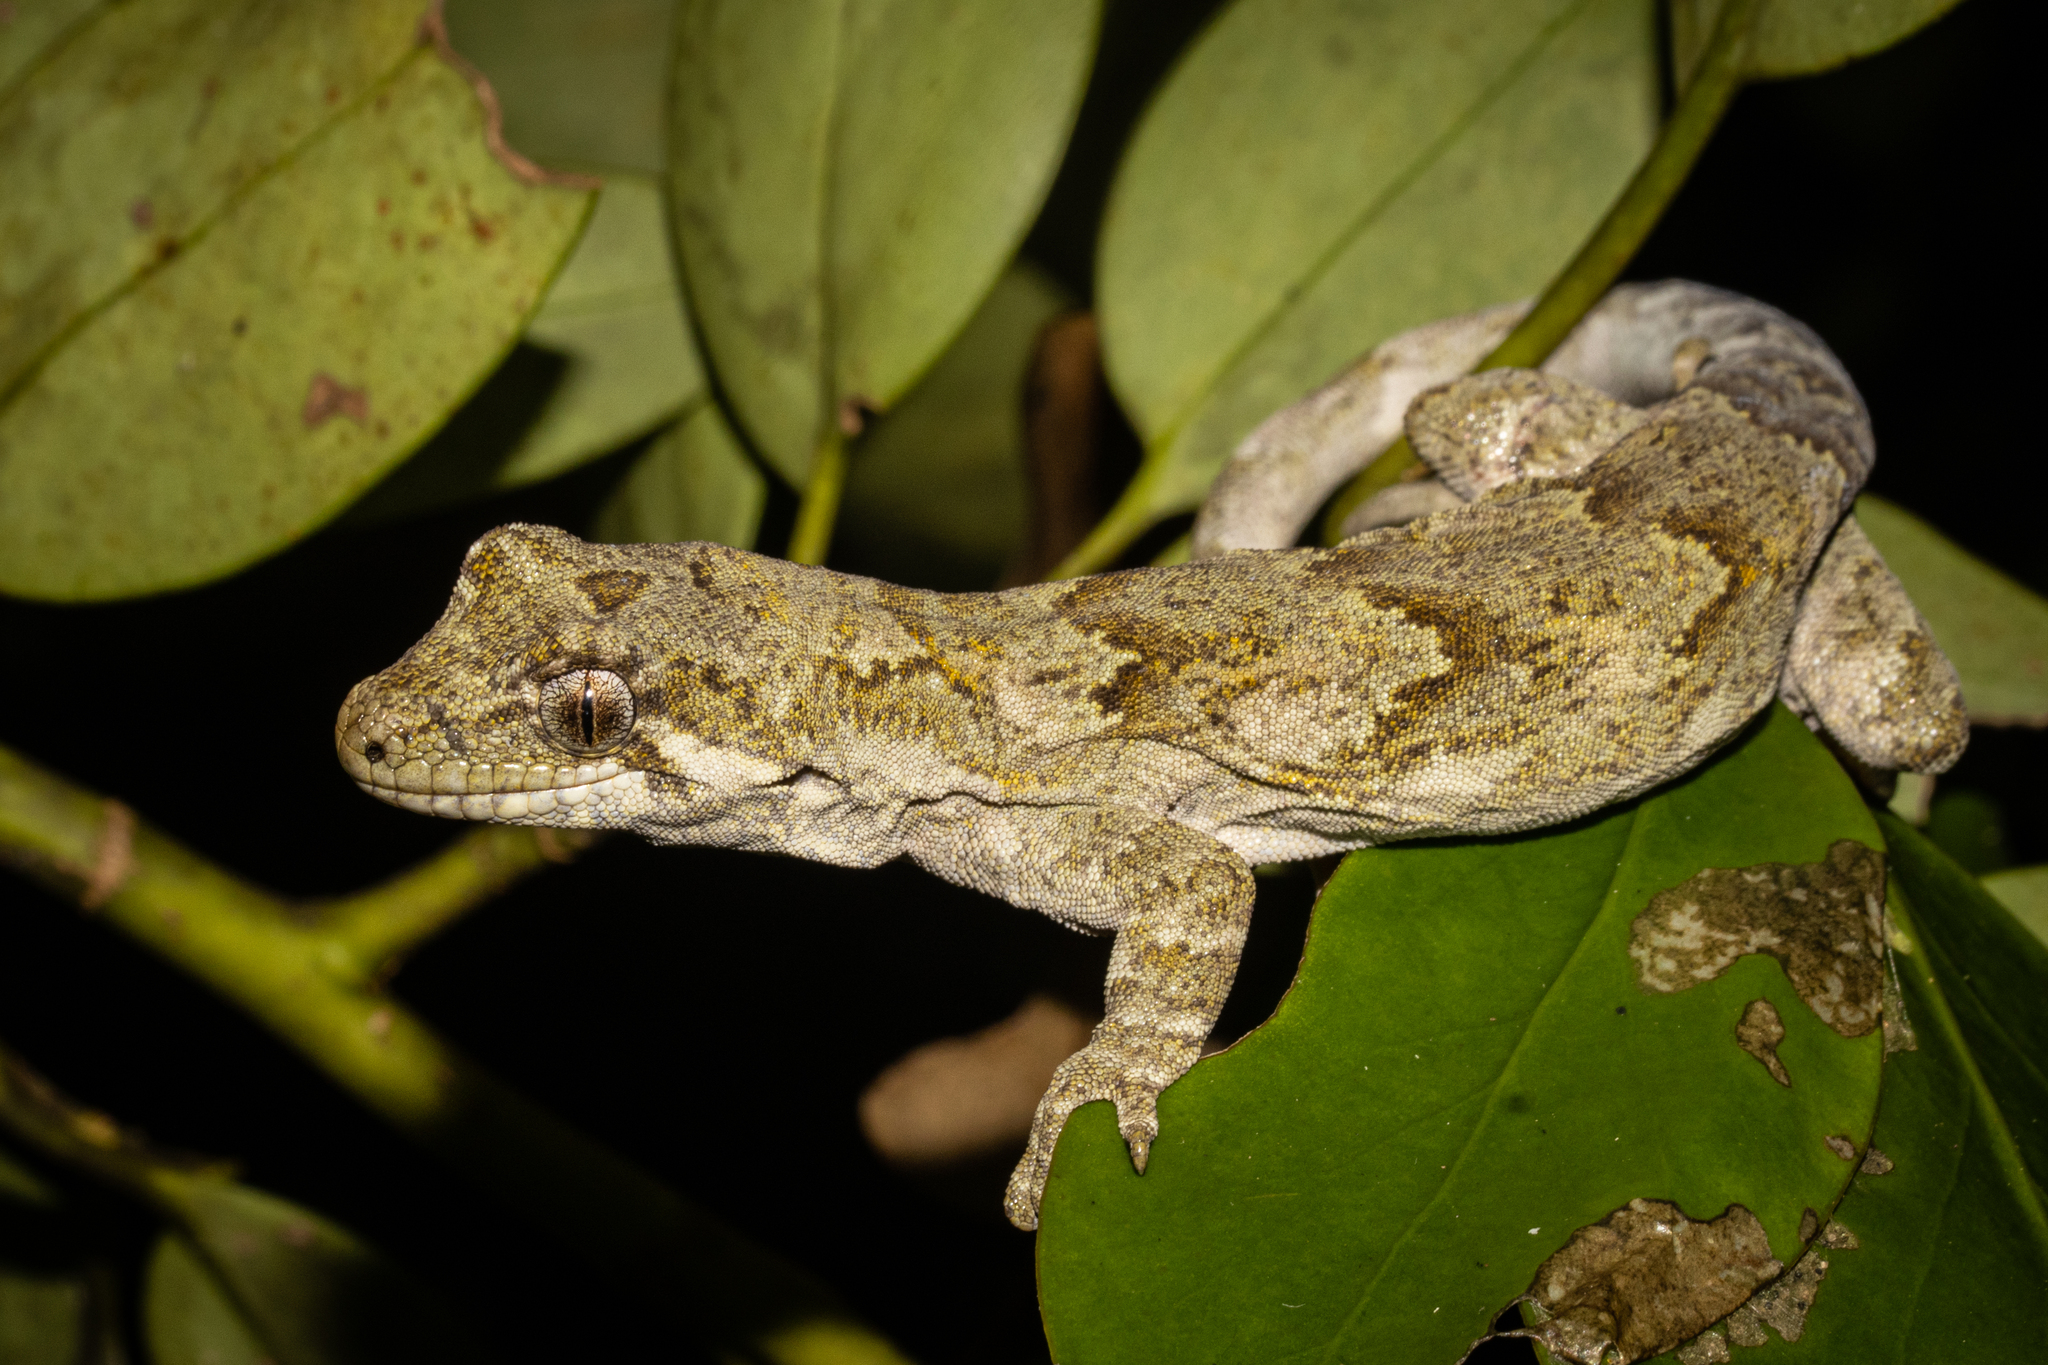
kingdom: Animalia
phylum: Chordata
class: Squamata
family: Diplodactylidae
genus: Mokopirirakau
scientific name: Mokopirirakau
